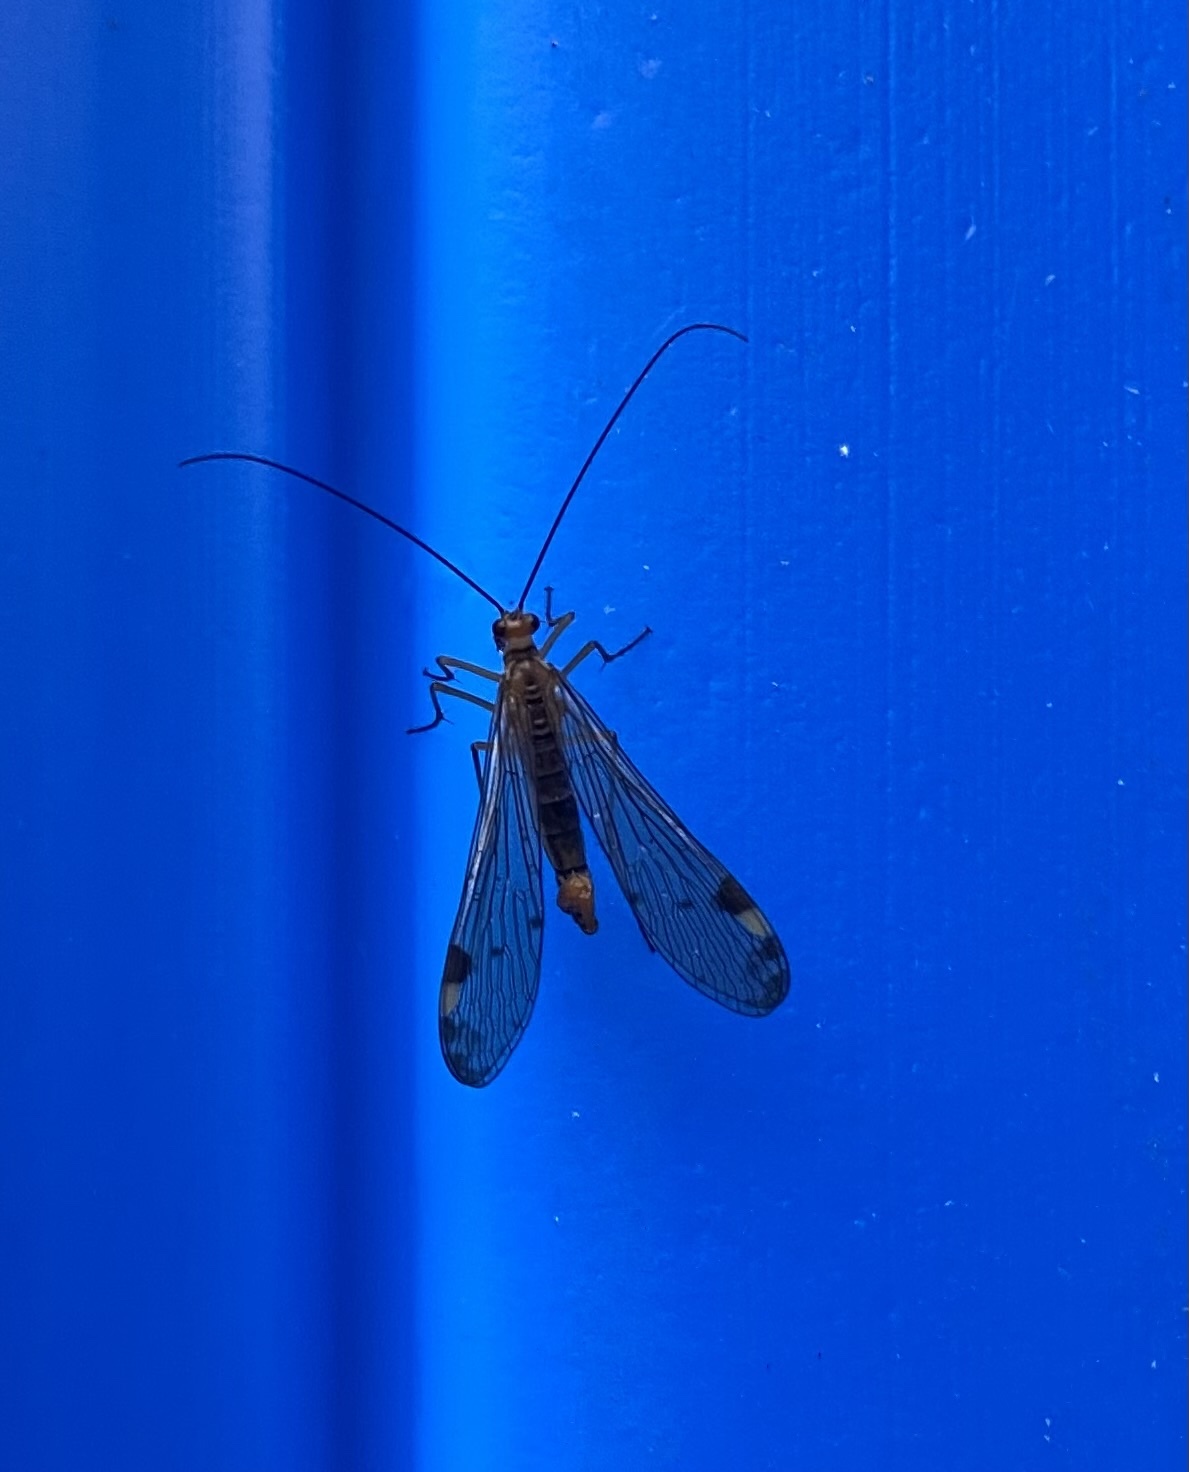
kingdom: Animalia
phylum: Arthropoda
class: Insecta
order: Mecoptera
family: Panorpidae
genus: Panorpa
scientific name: Panorpa connexa
